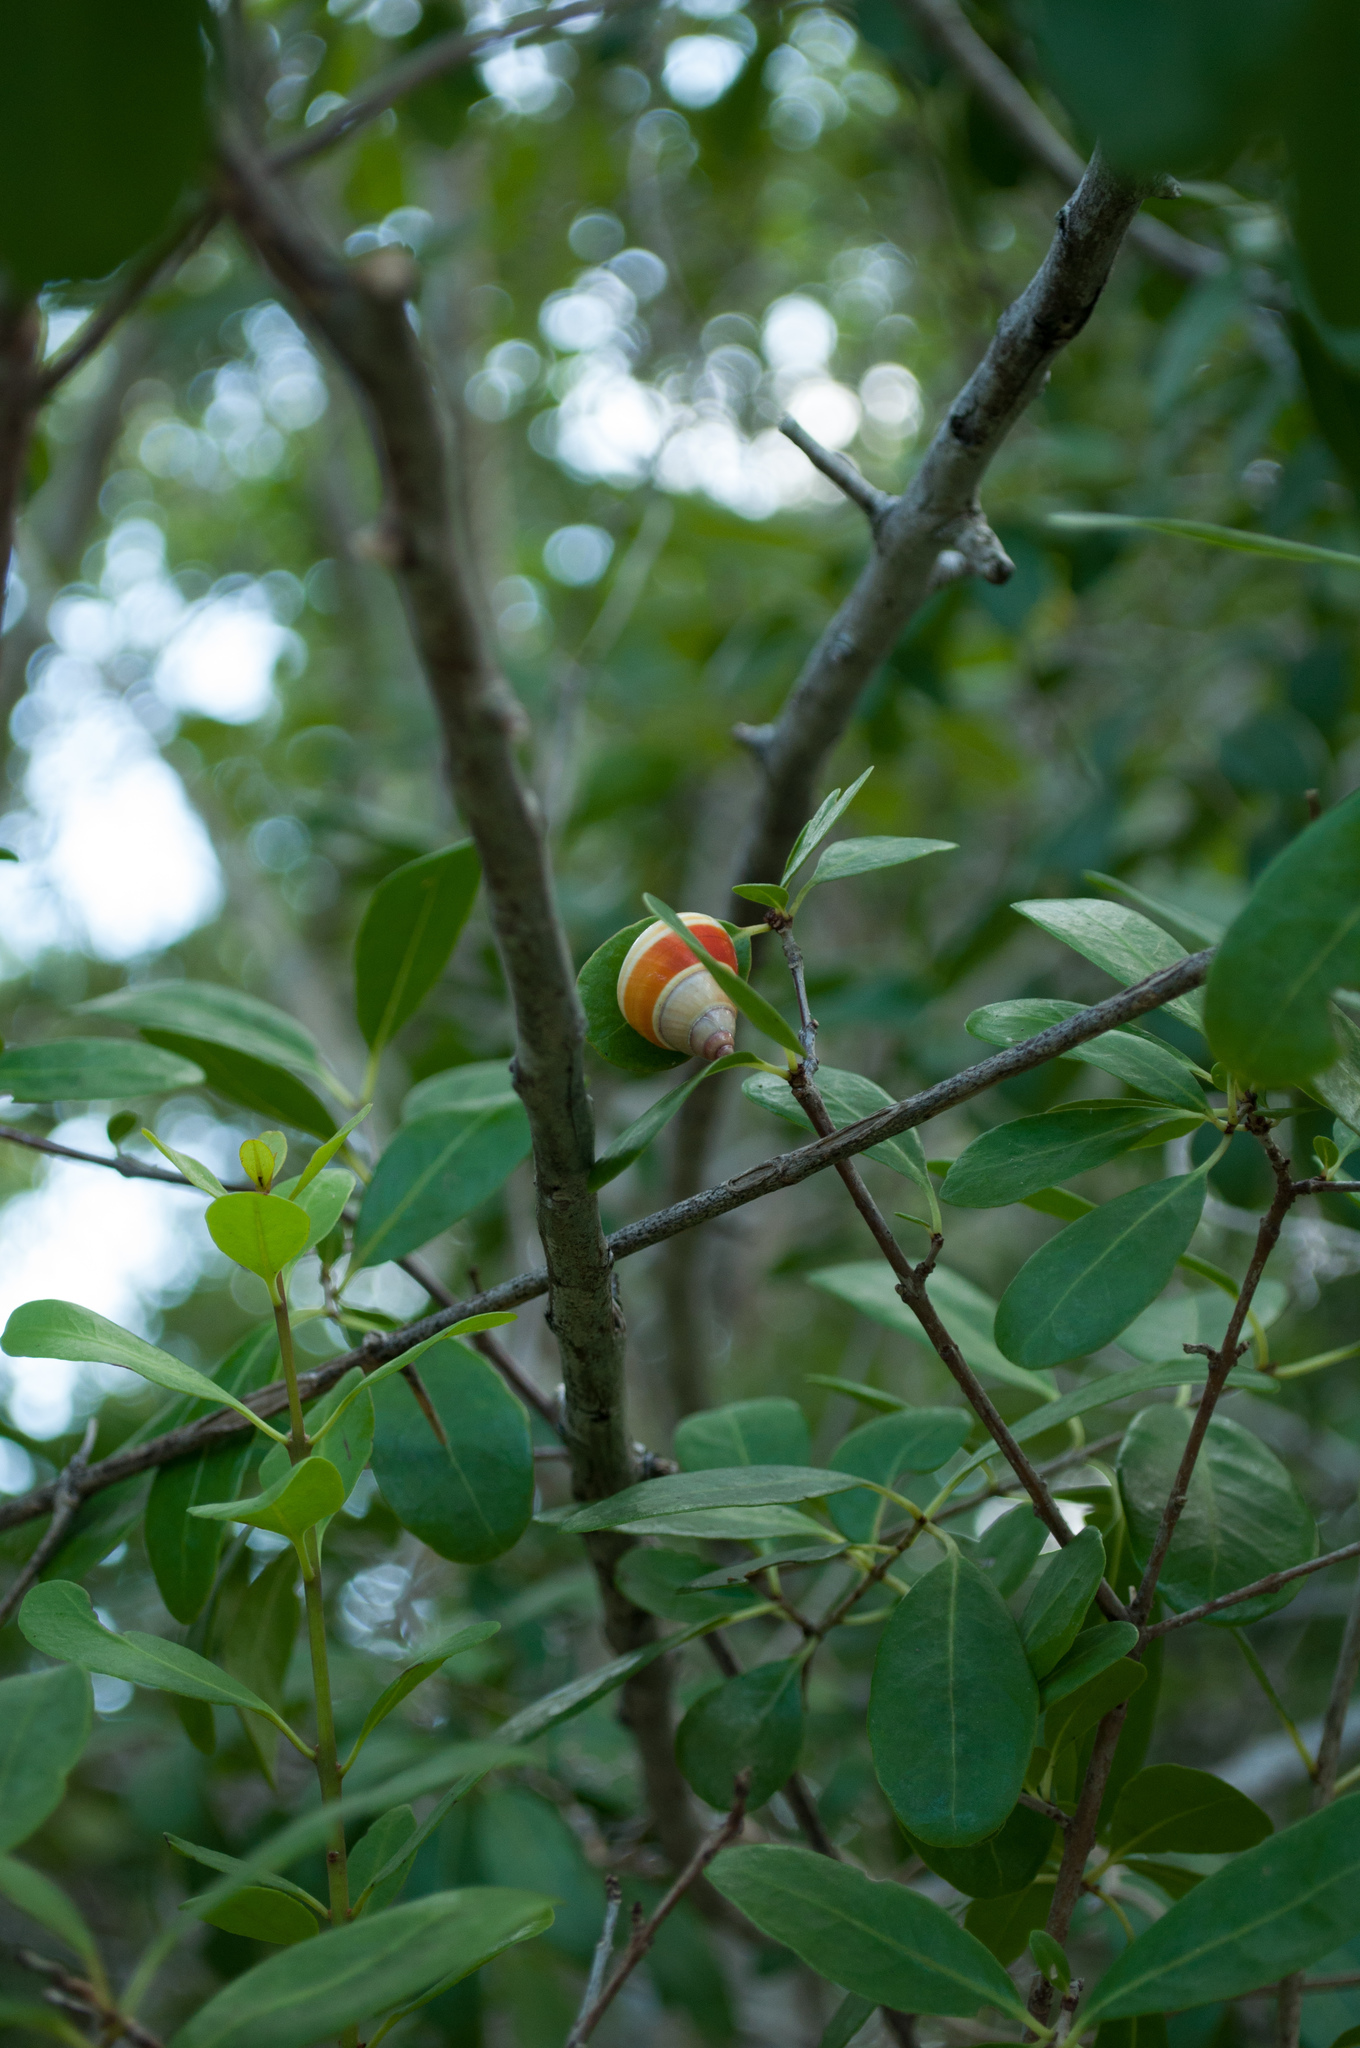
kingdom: Animalia
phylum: Mollusca
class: Gastropoda
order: Stylommatophora
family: Orthalicidae
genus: Liguus
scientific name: Liguus fasciatus
